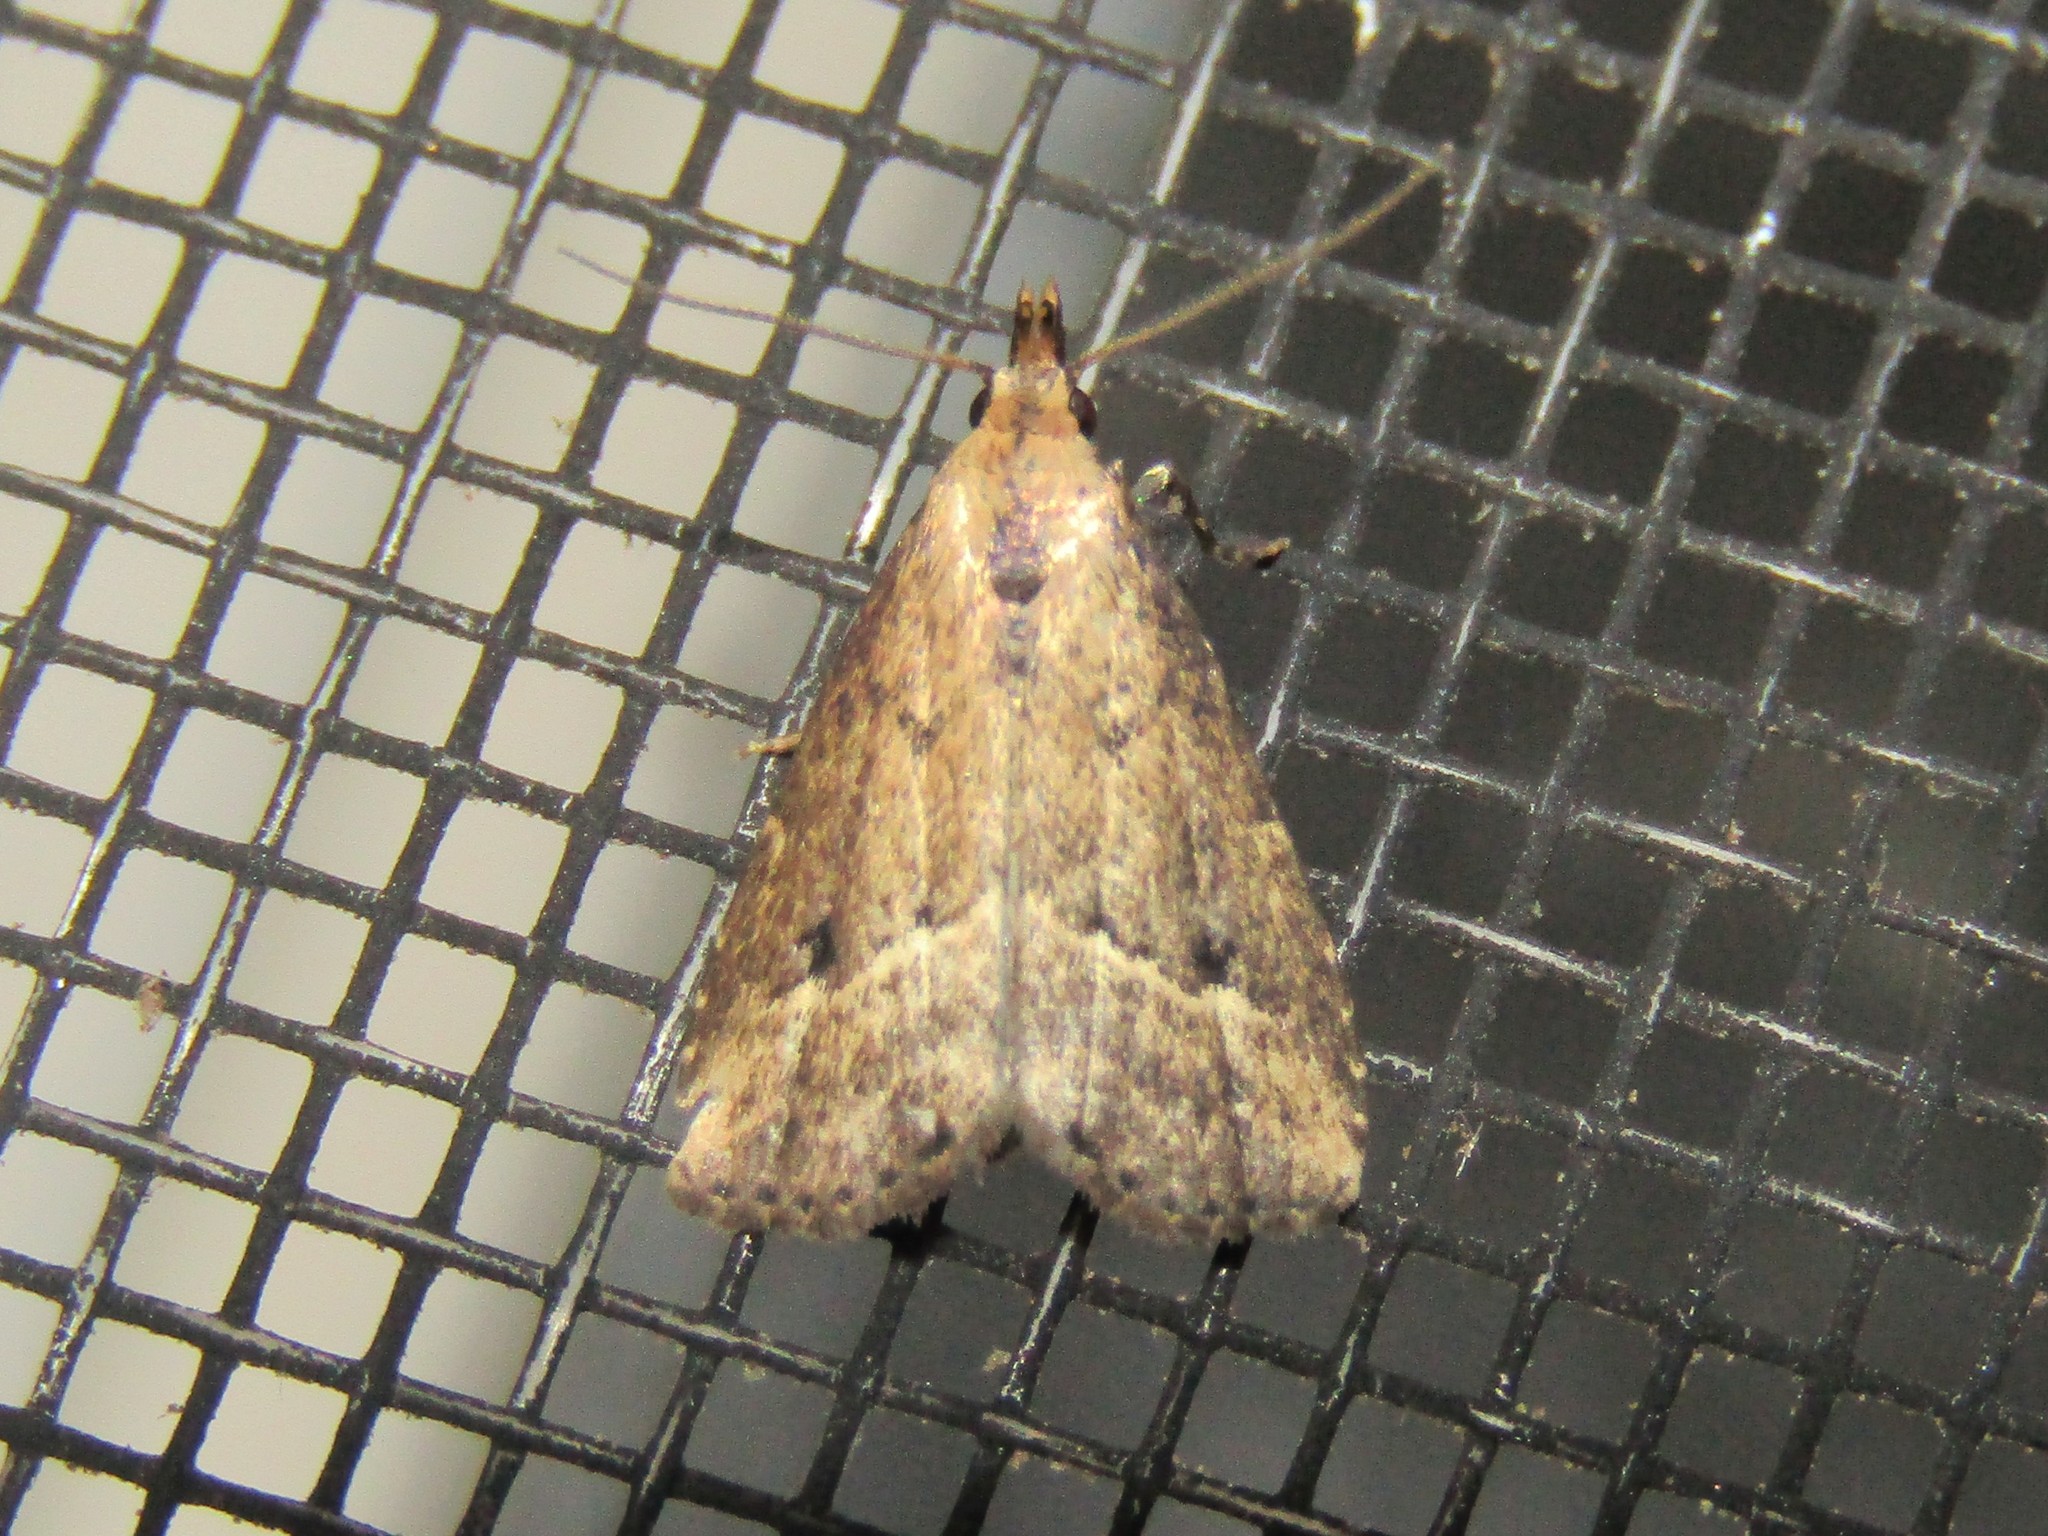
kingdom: Animalia
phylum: Arthropoda
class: Insecta
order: Lepidoptera
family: Erebidae
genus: Schrankia
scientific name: Schrankia
